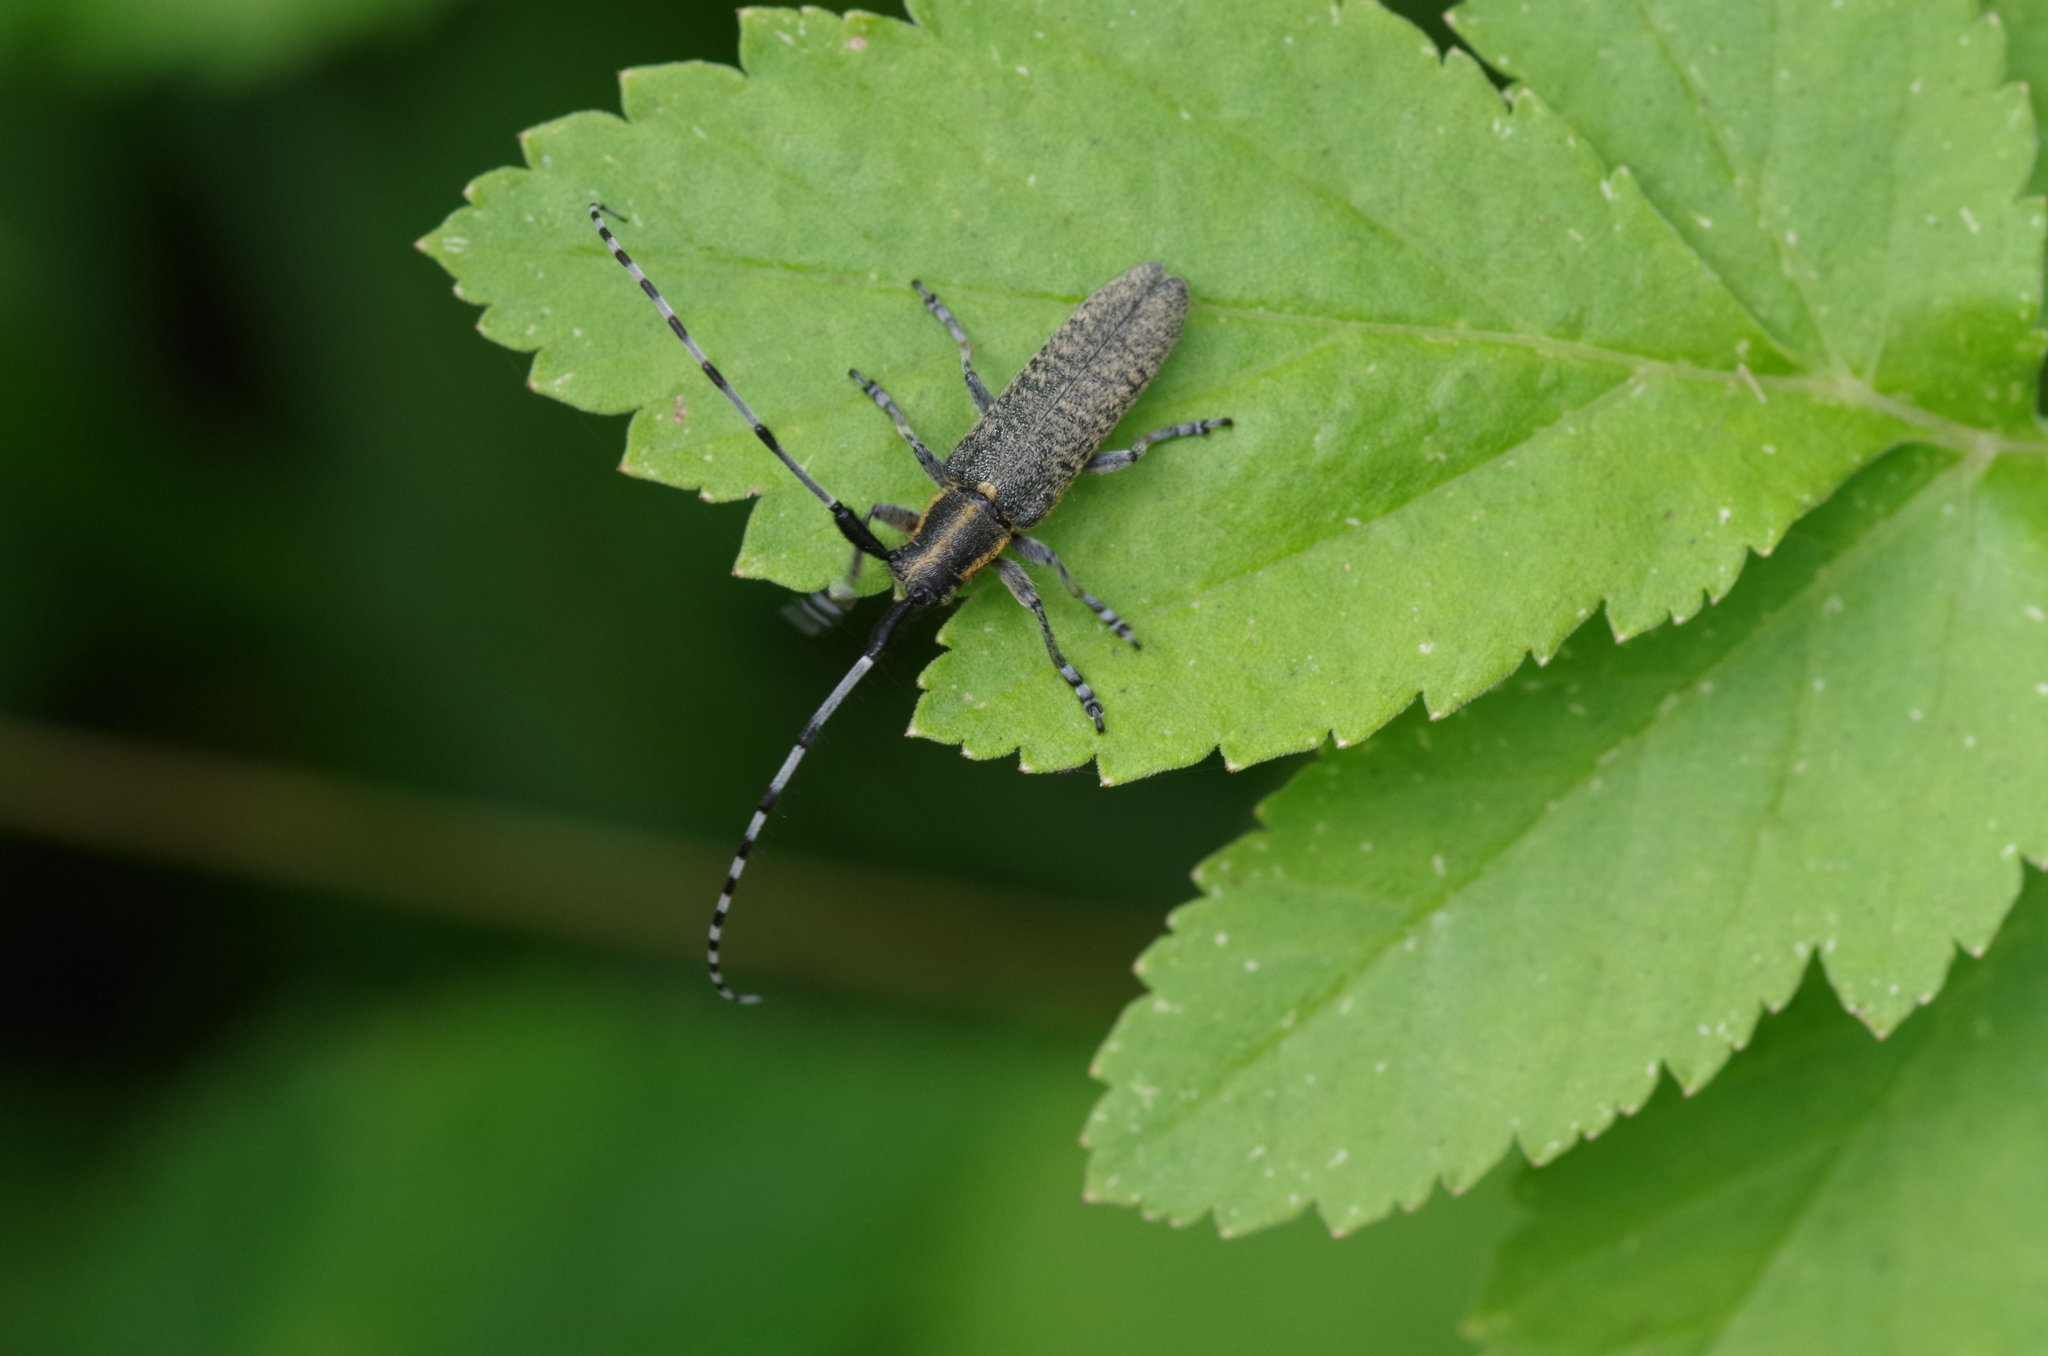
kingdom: Animalia
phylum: Arthropoda
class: Insecta
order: Coleoptera
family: Cerambycidae
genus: Agapanthia
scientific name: Agapanthia villosoviridescens
